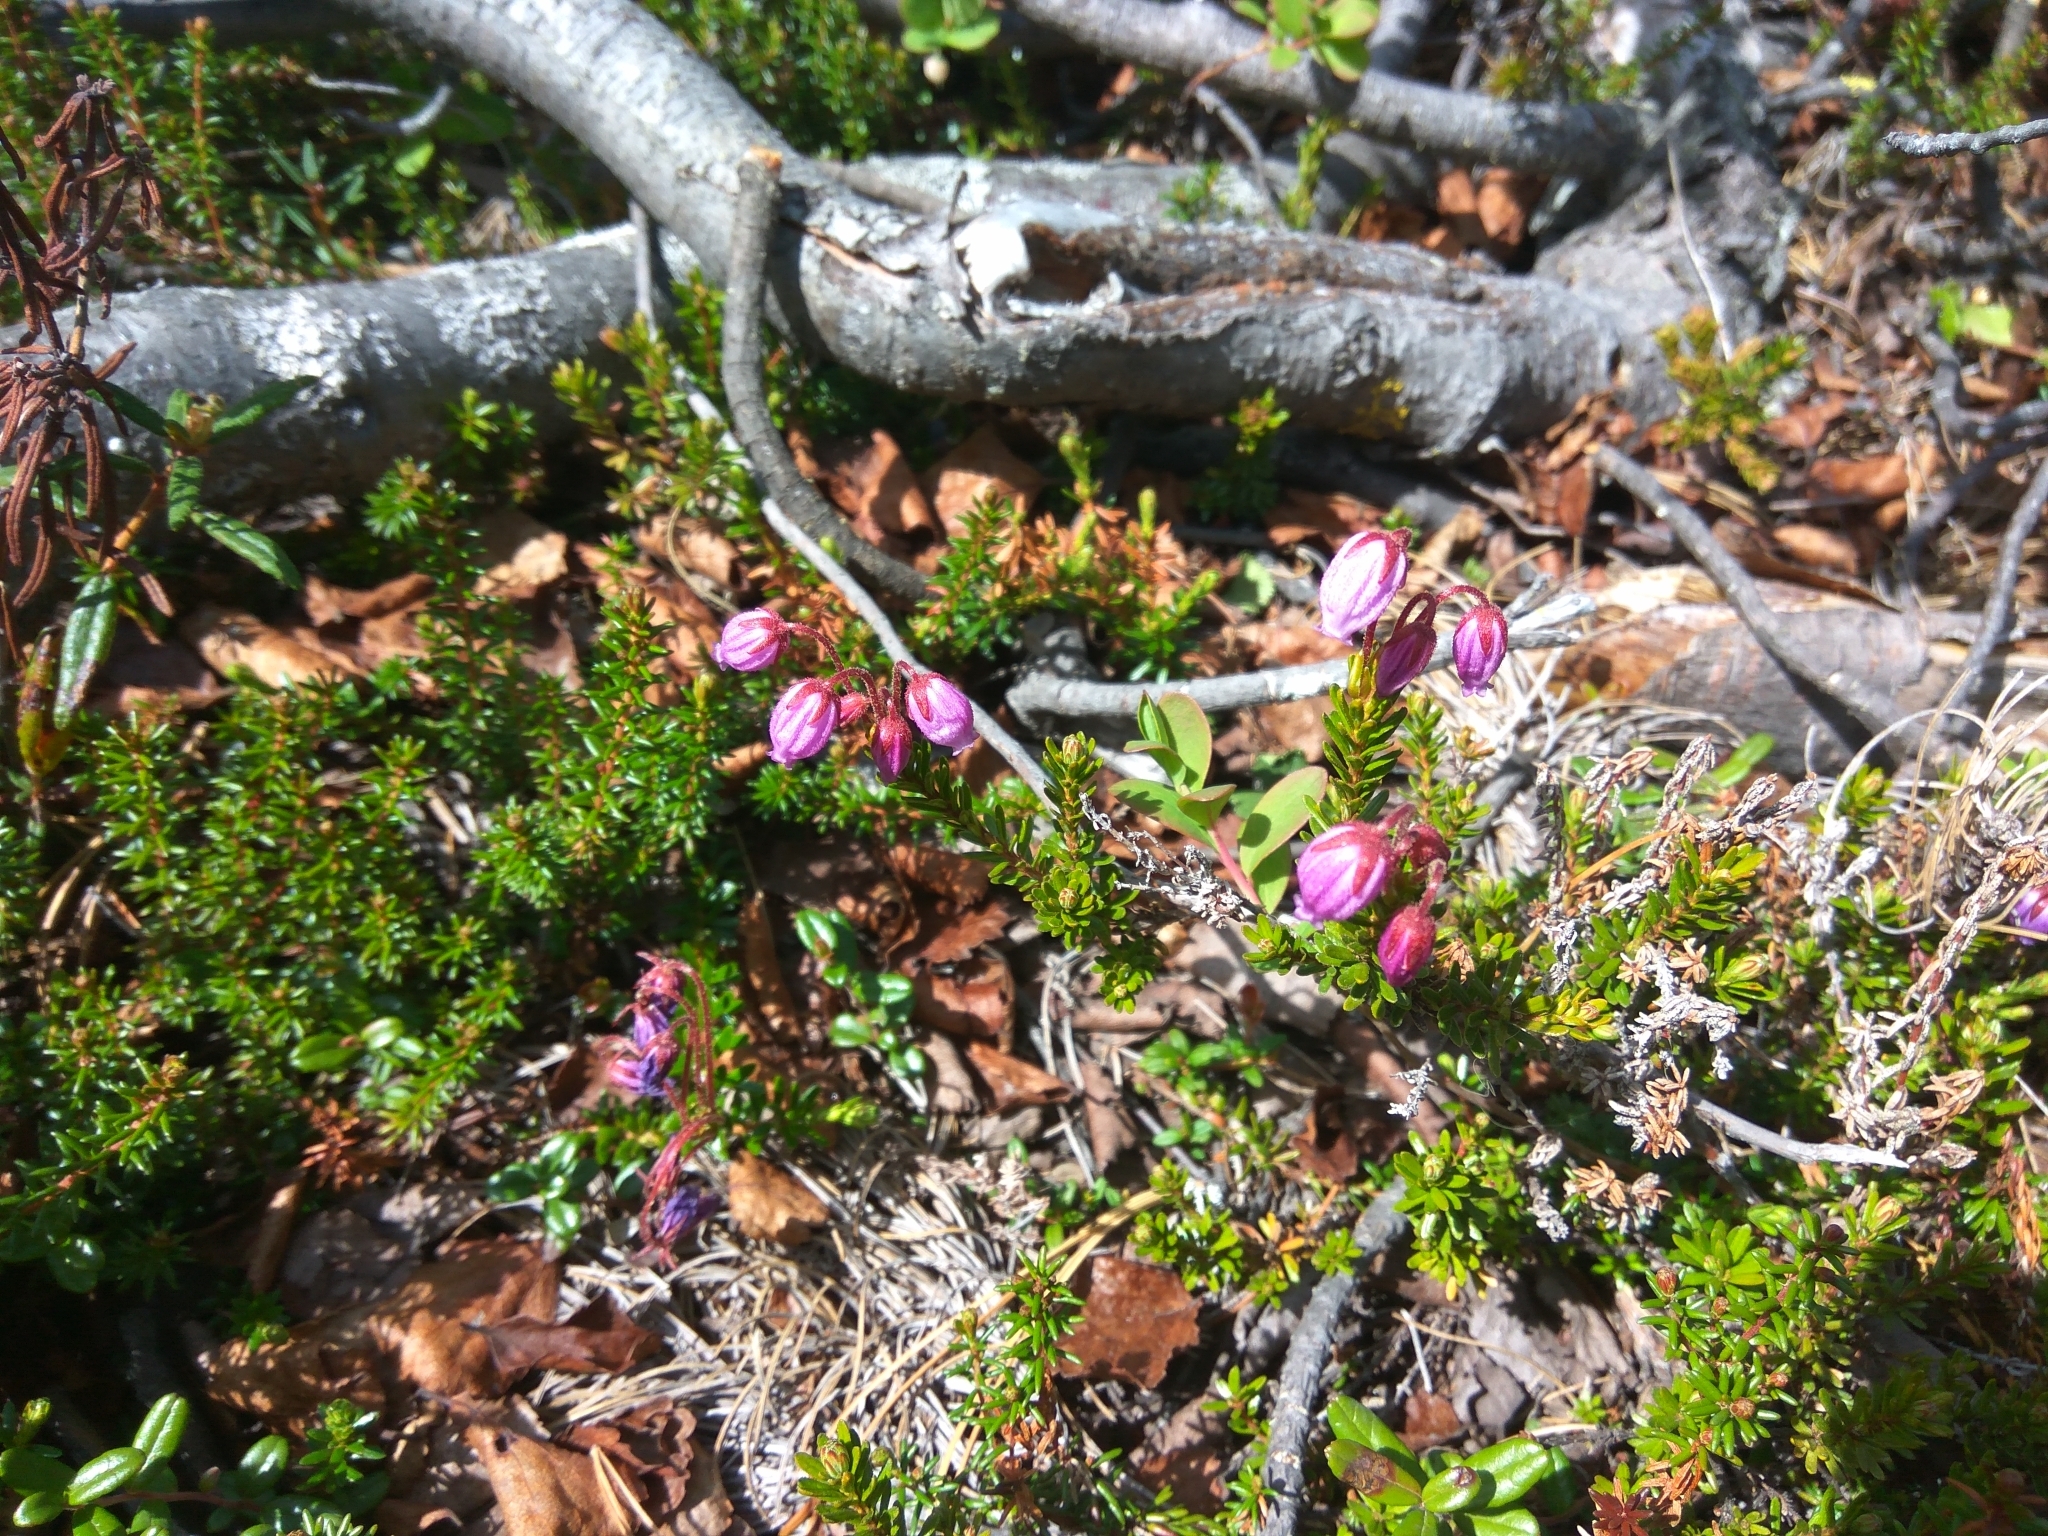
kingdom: Plantae
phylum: Tracheophyta
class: Magnoliopsida
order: Ericales
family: Ericaceae
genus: Phyllodoce
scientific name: Phyllodoce caerulea
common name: Blue heath
